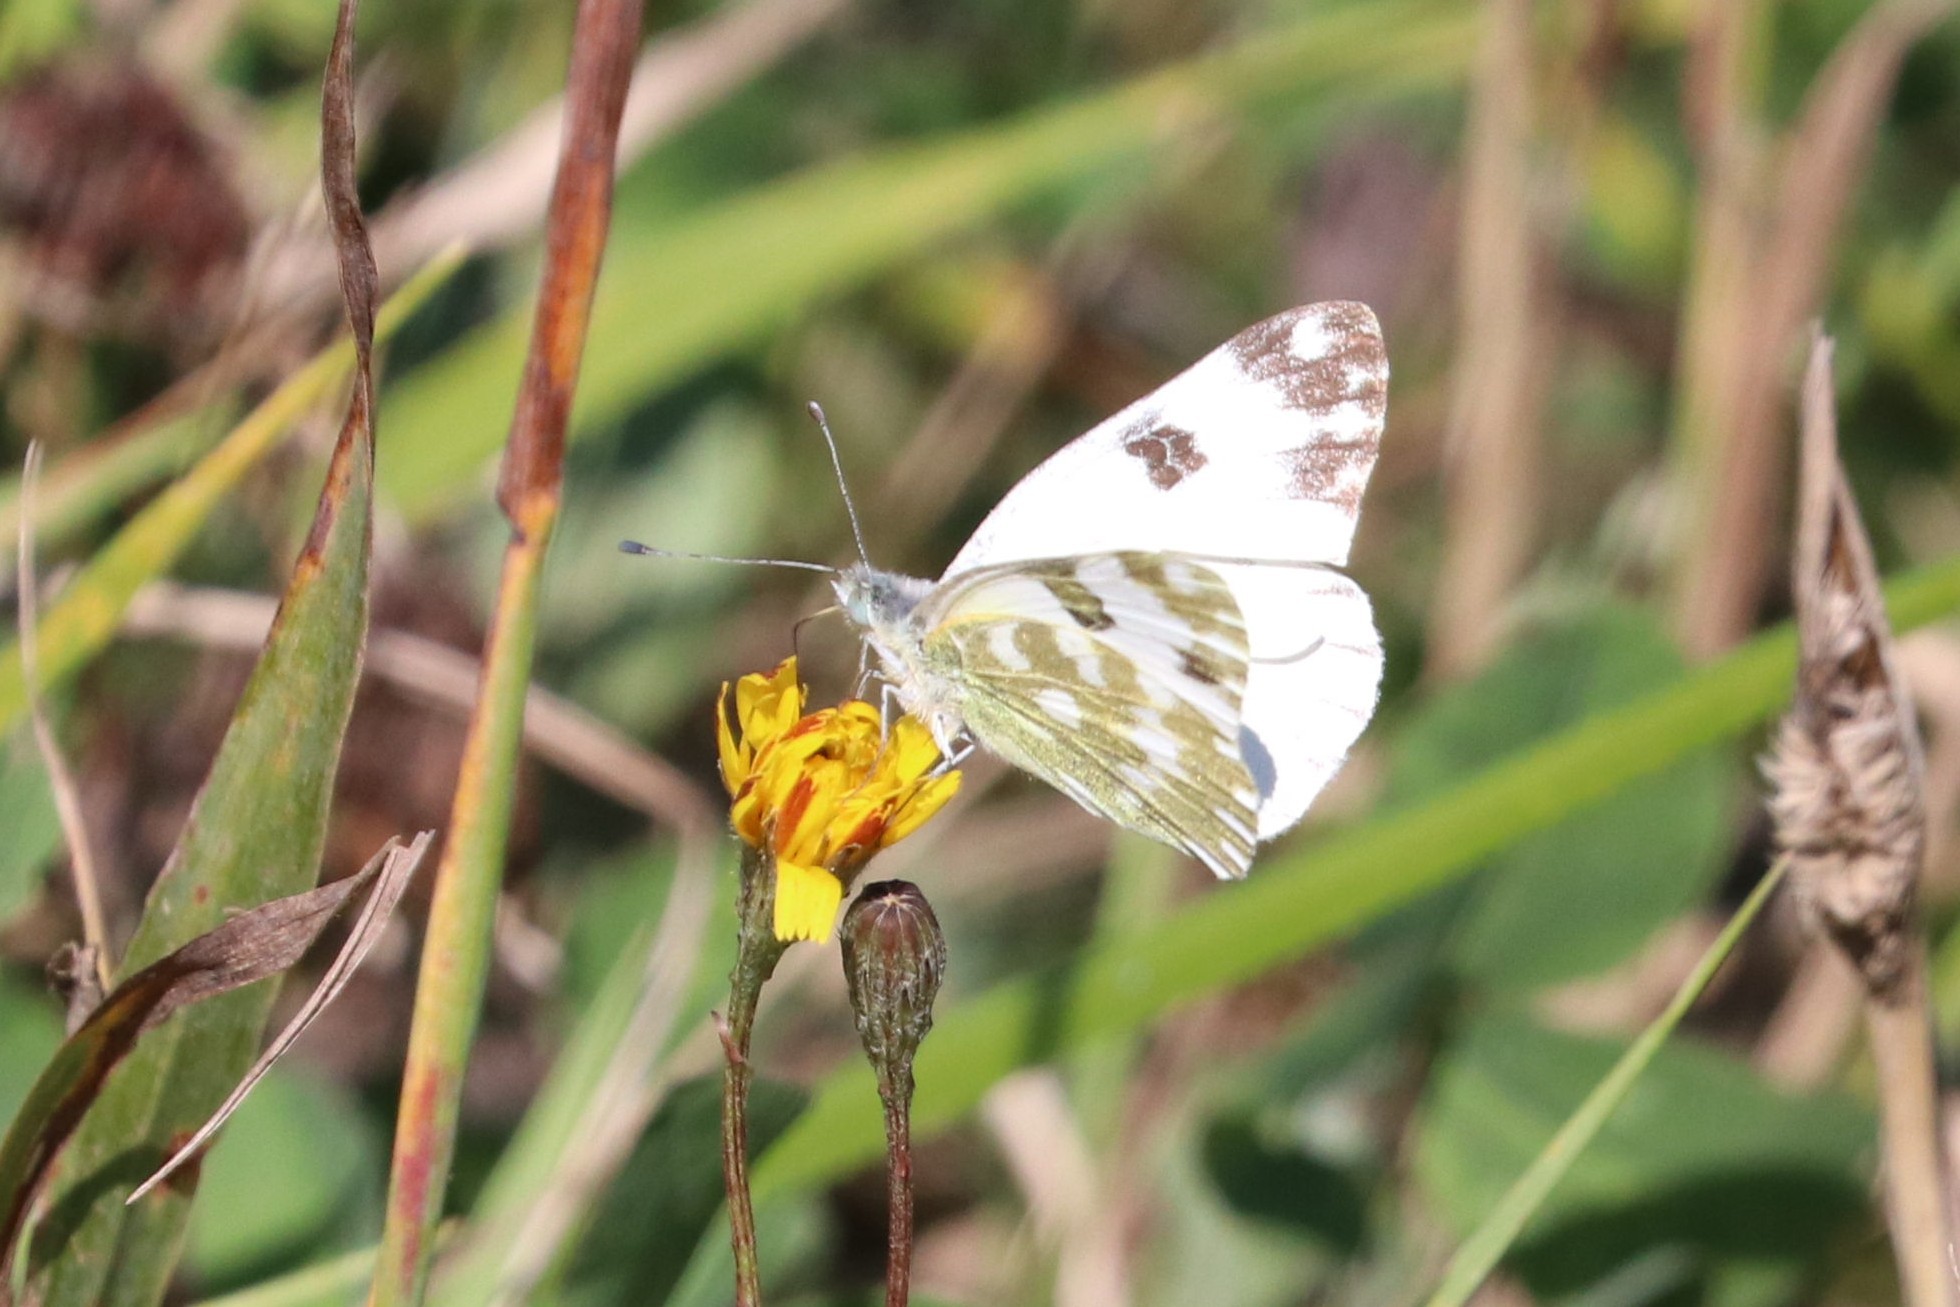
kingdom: Animalia
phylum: Arthropoda
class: Insecta
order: Lepidoptera
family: Pieridae
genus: Pontia
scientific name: Pontia edusa
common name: Eastern bath white
